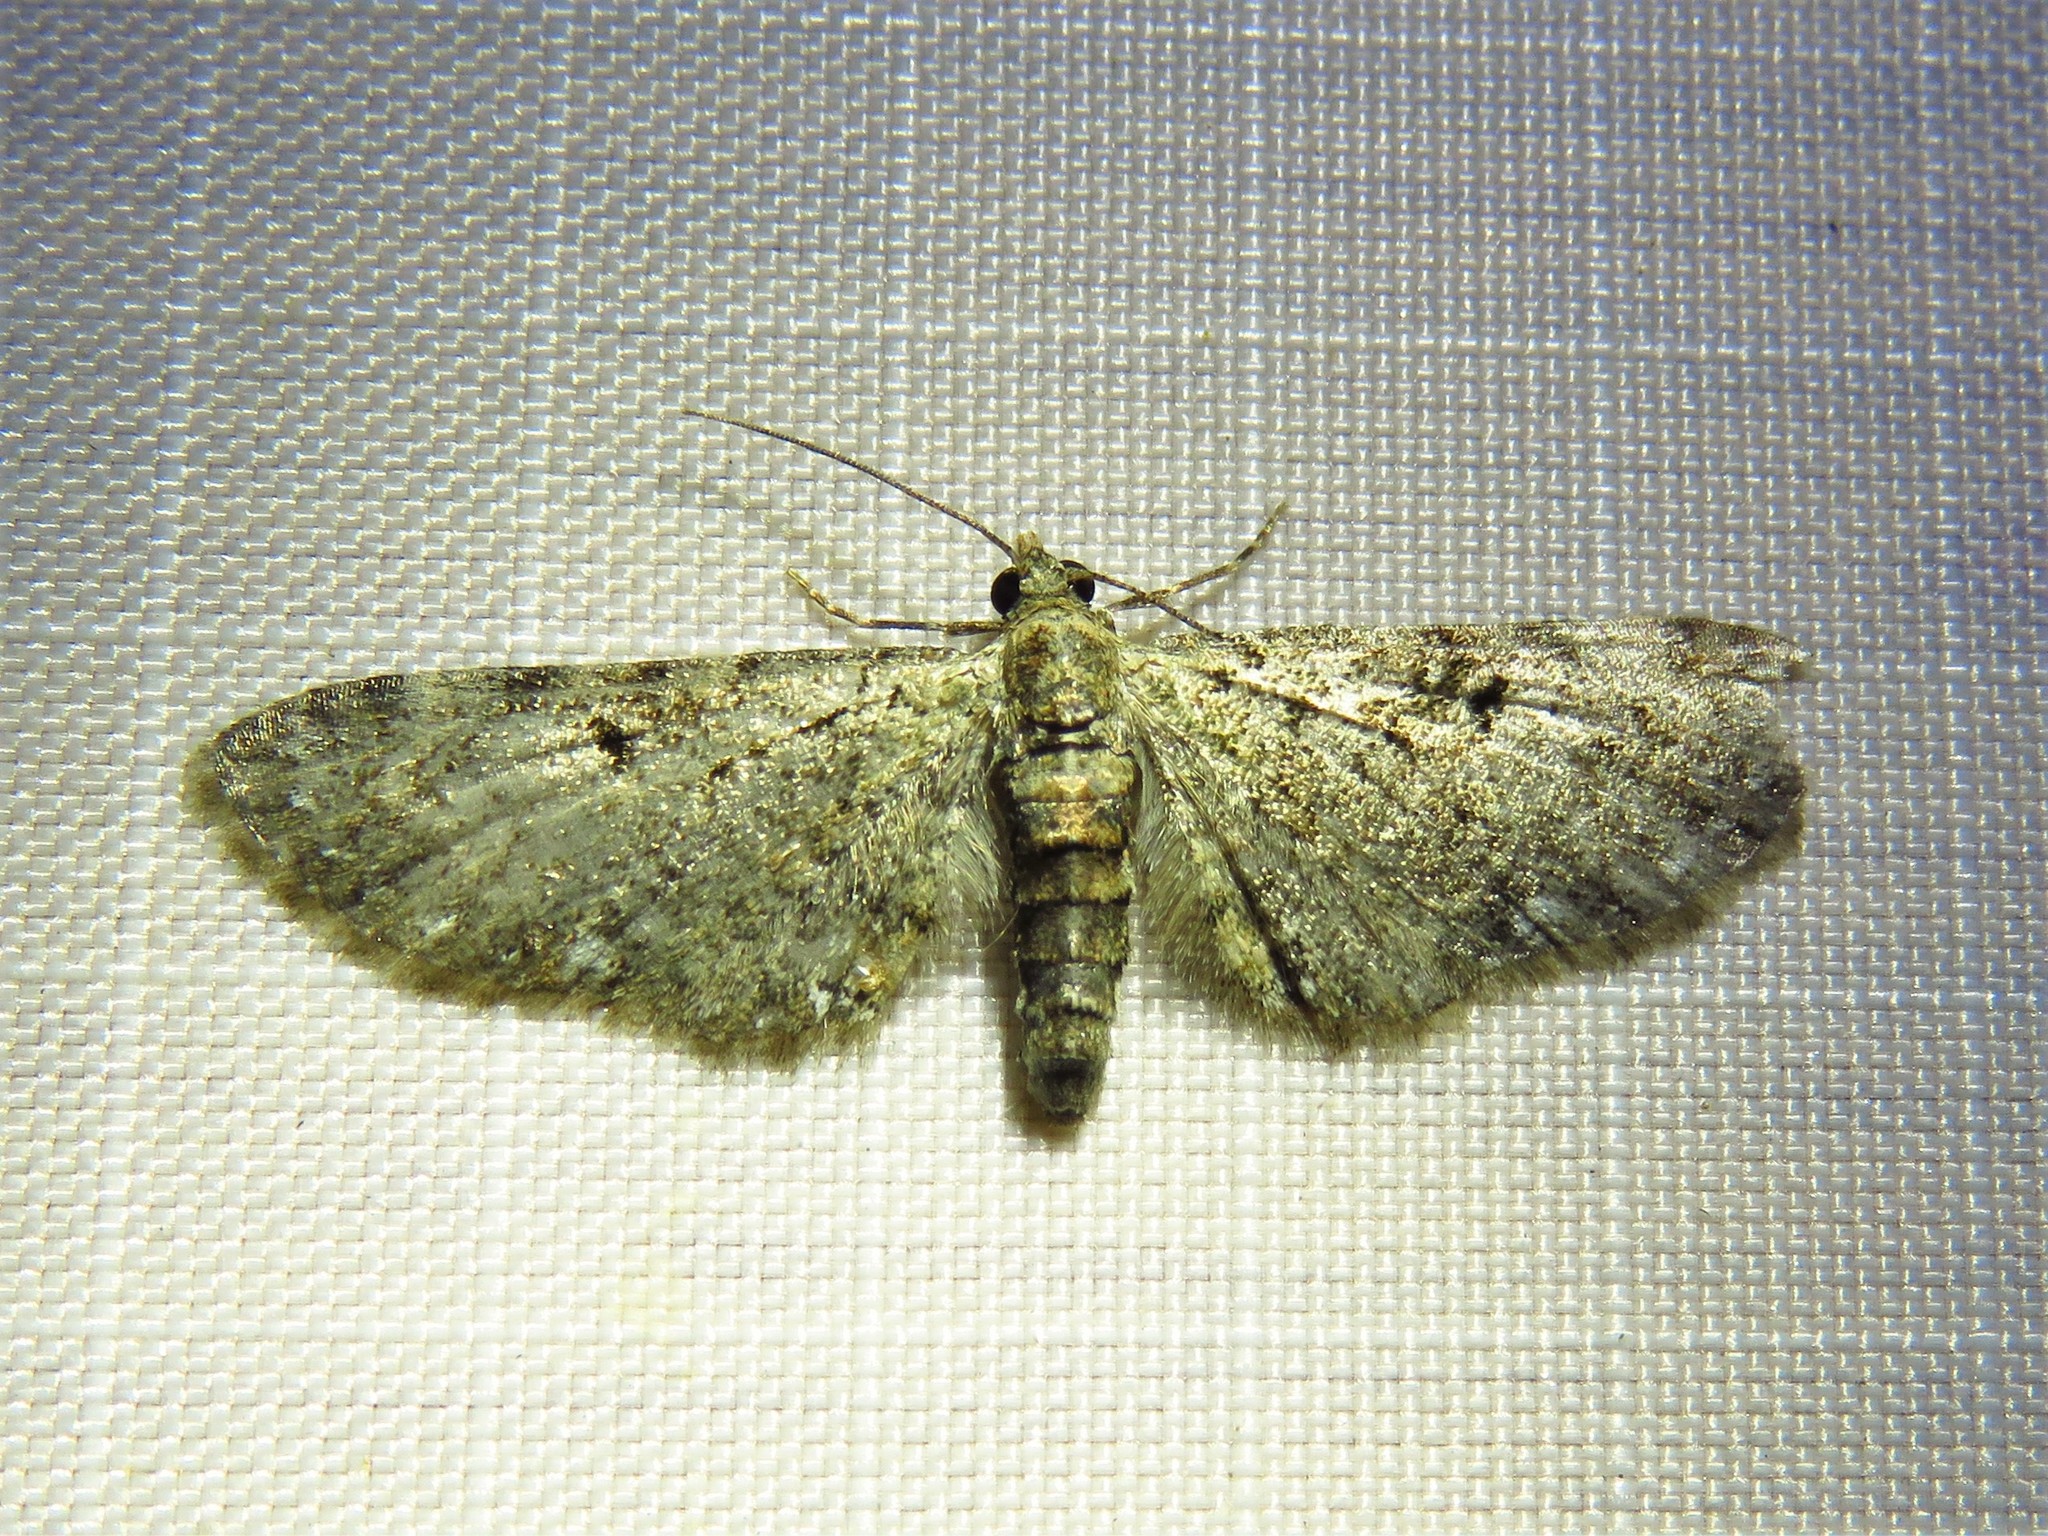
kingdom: Animalia
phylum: Arthropoda
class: Insecta
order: Lepidoptera
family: Geometridae
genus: Eupithecia
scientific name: Eupithecia miserulata
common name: Common eupithecia
